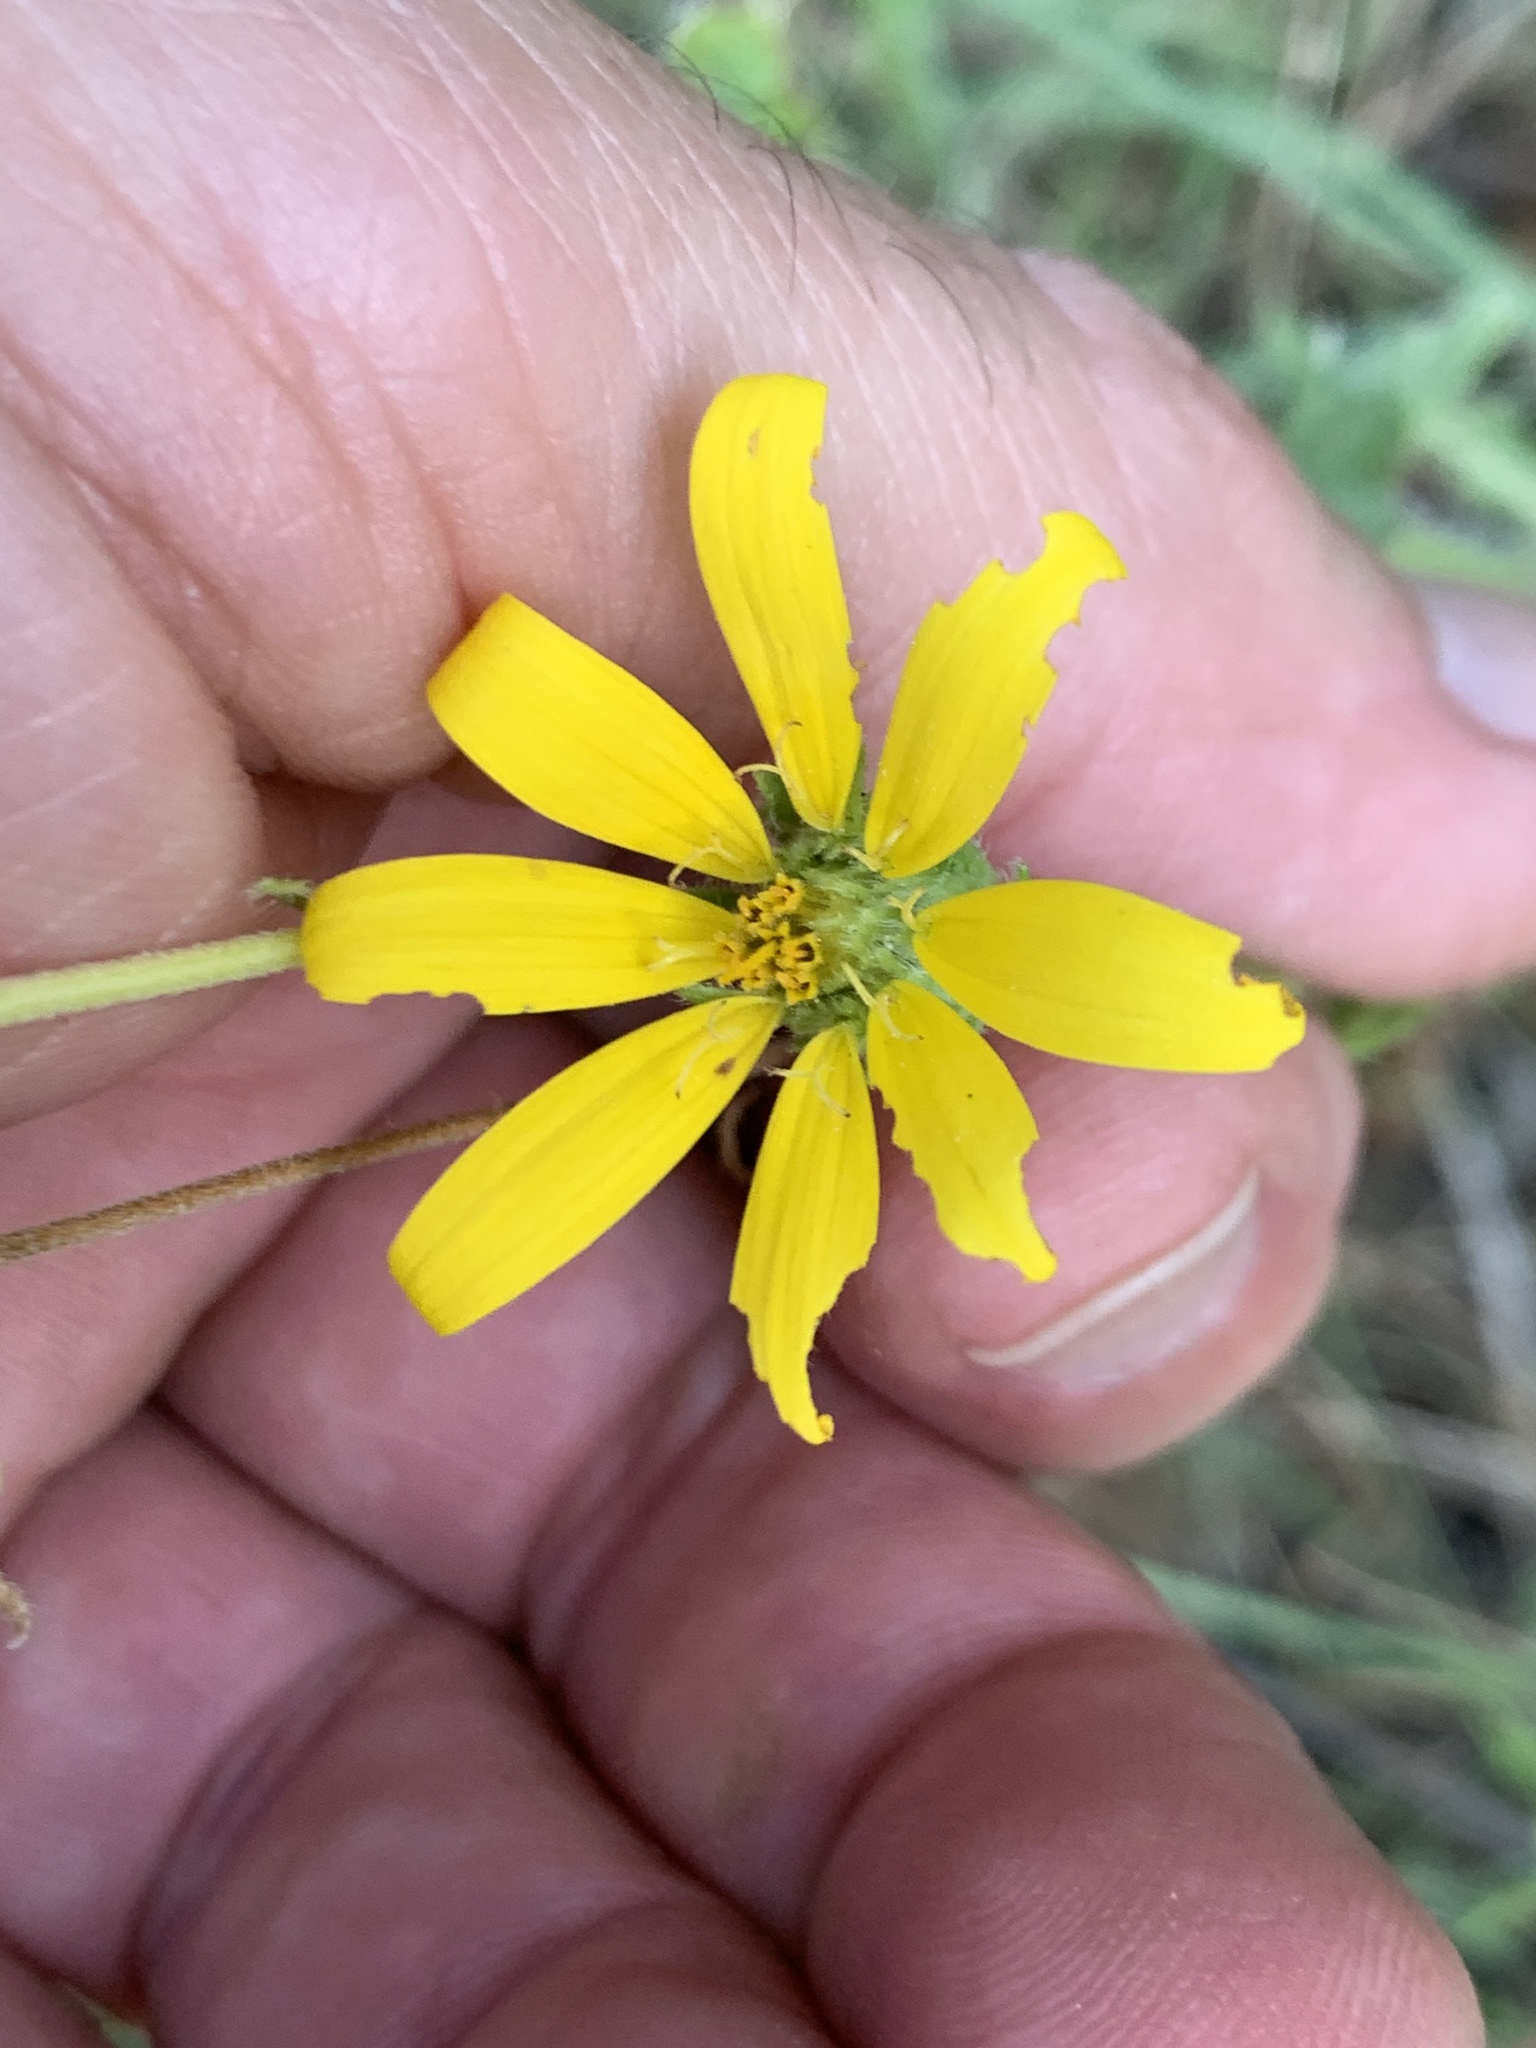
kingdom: Plantae
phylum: Tracheophyta
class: Magnoliopsida
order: Asterales
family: Asteraceae
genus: Engelmannia
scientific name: Engelmannia peristenia
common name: Engelmann's daisy
